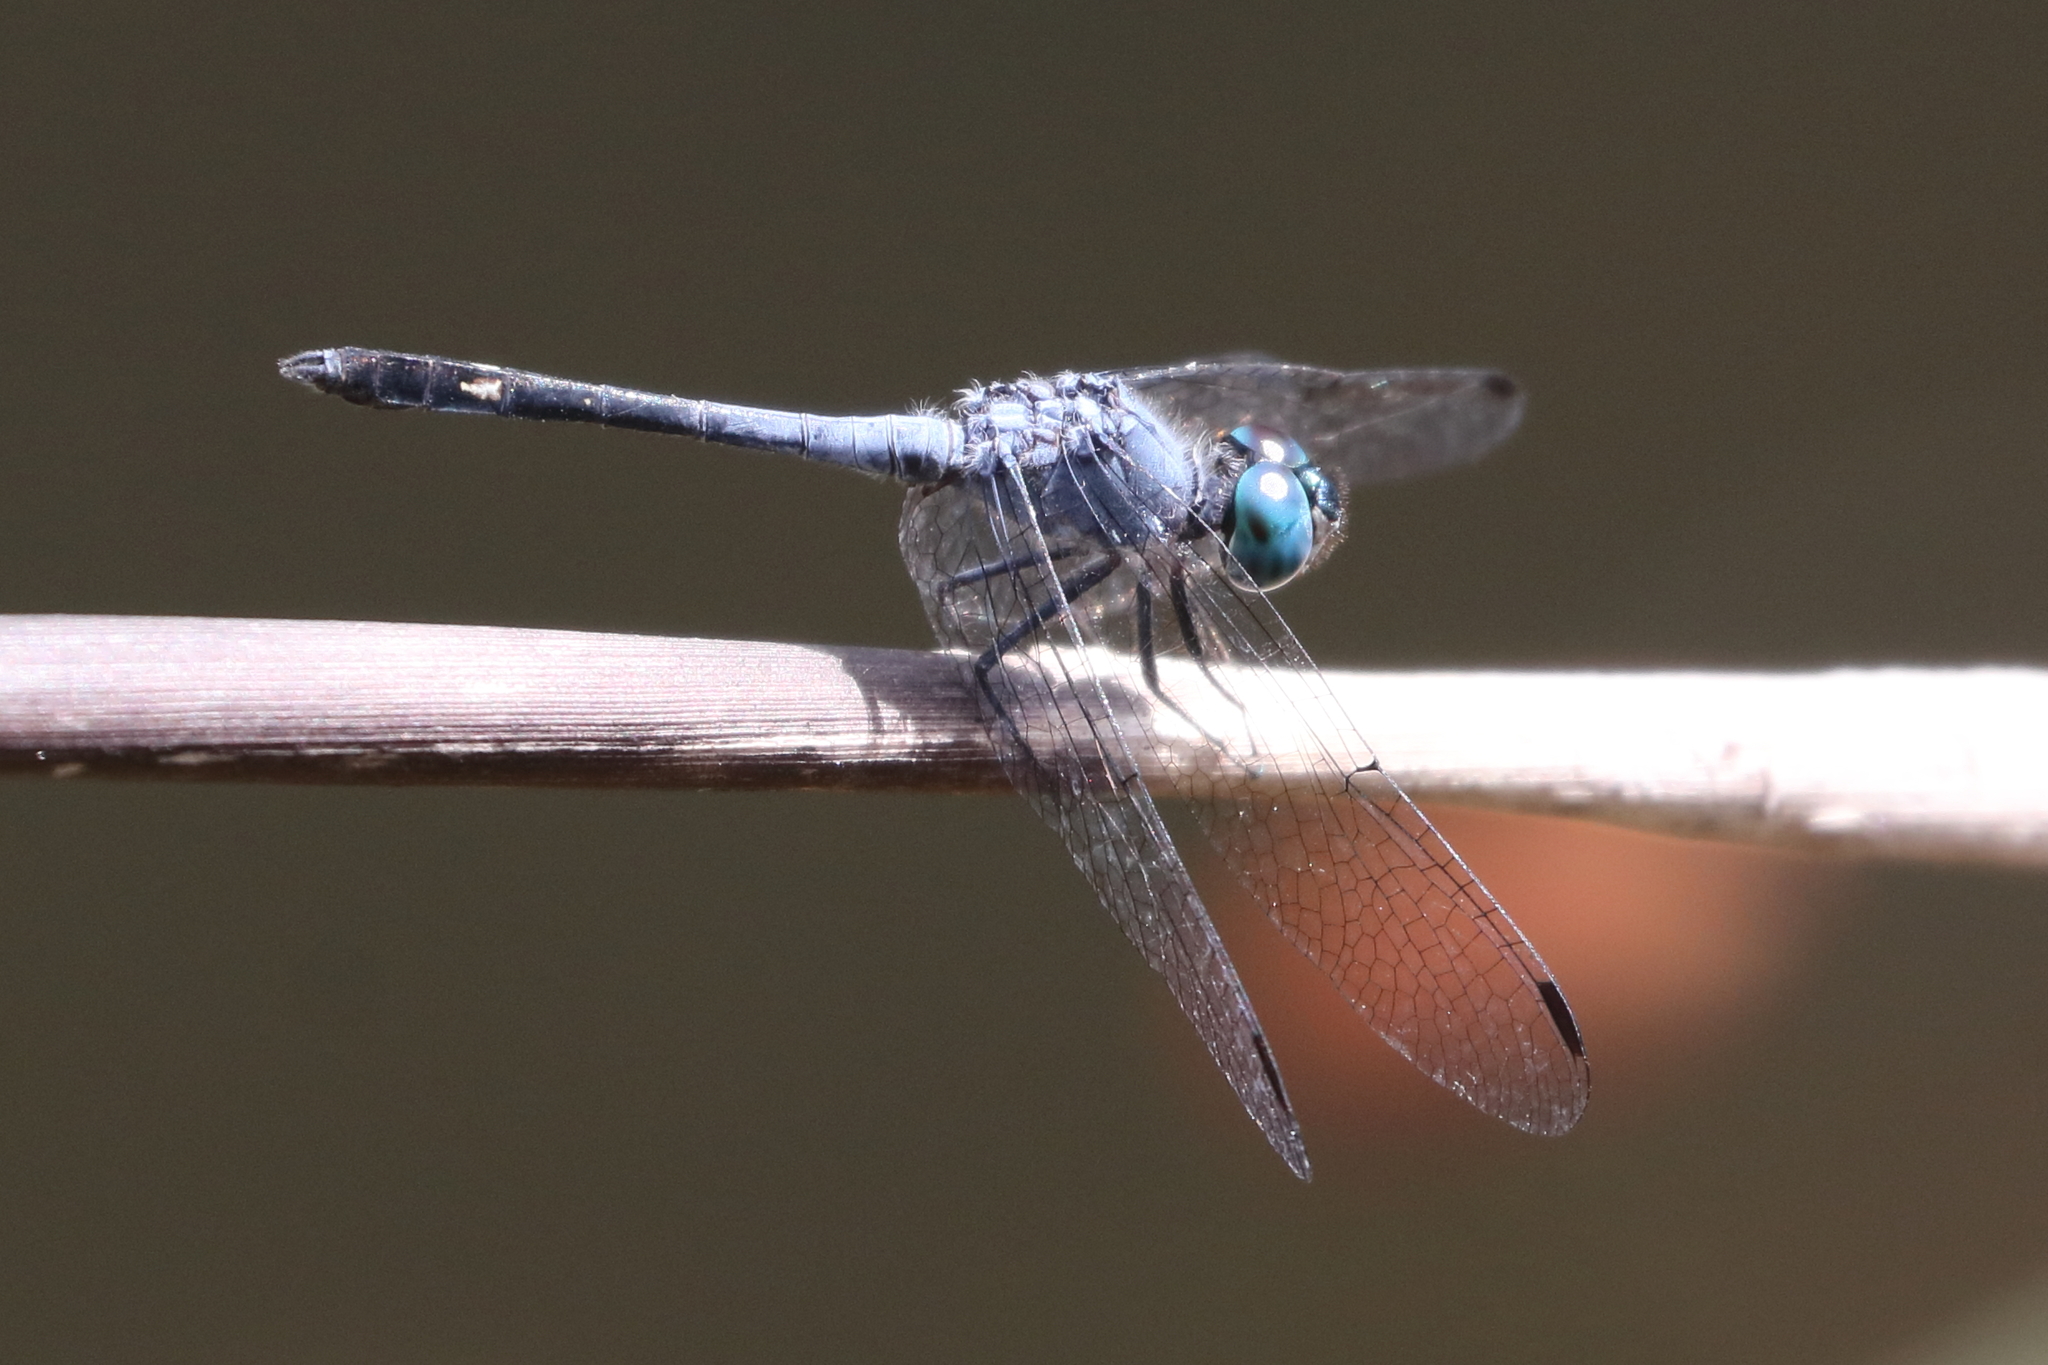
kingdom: Animalia
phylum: Arthropoda
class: Insecta
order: Odonata
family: Libellulidae
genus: Micrathyria
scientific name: Micrathyria aequalis
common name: Spot-tailed dasher
